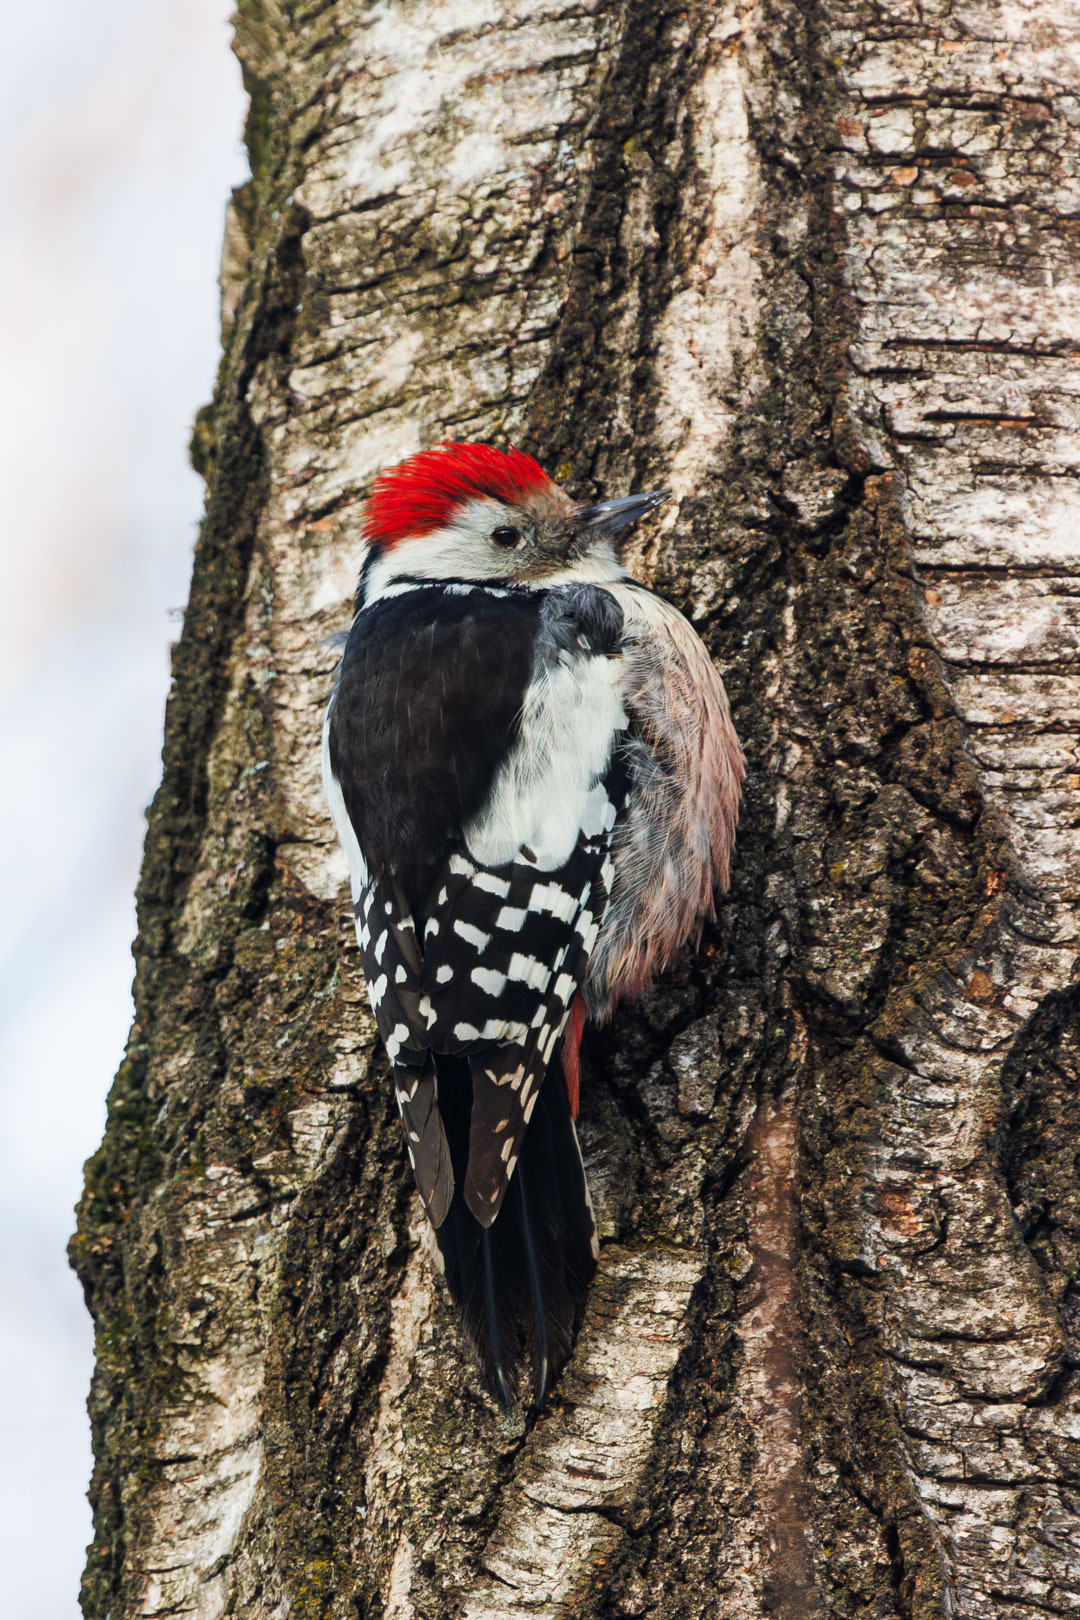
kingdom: Animalia
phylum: Chordata
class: Aves
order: Piciformes
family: Picidae
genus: Dendrocoptes
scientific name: Dendrocoptes medius
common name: Middle spotted woodpecker
